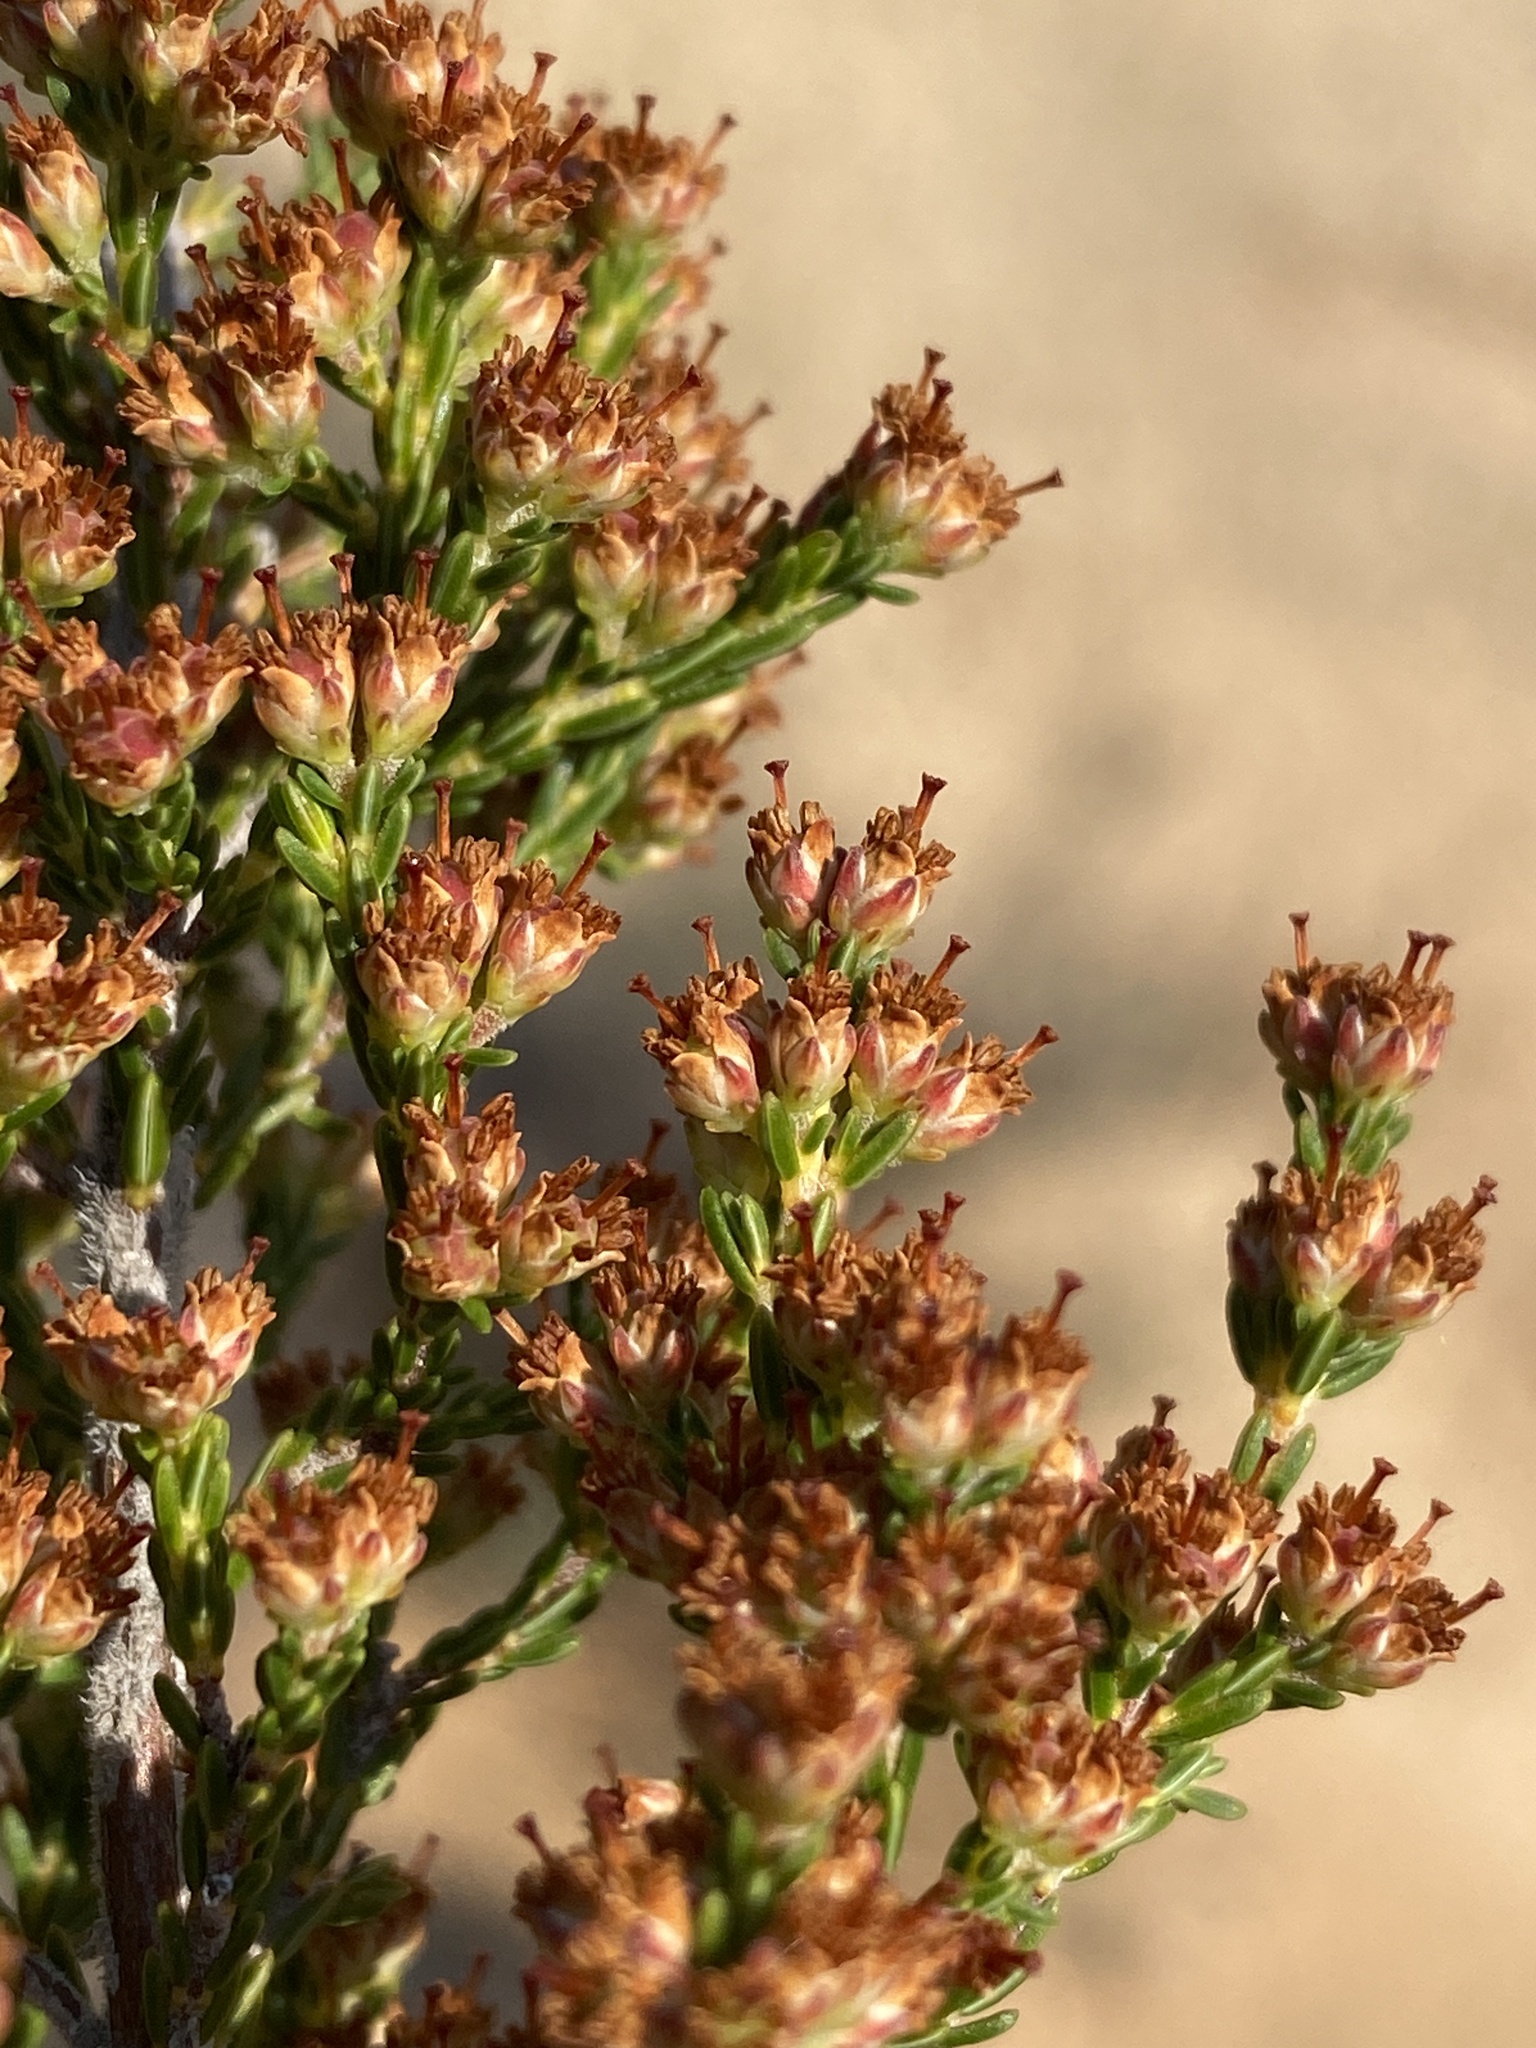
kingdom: Plantae
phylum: Tracheophyta
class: Magnoliopsida
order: Ericales
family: Ericaceae
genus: Erica
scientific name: Erica lepidota
